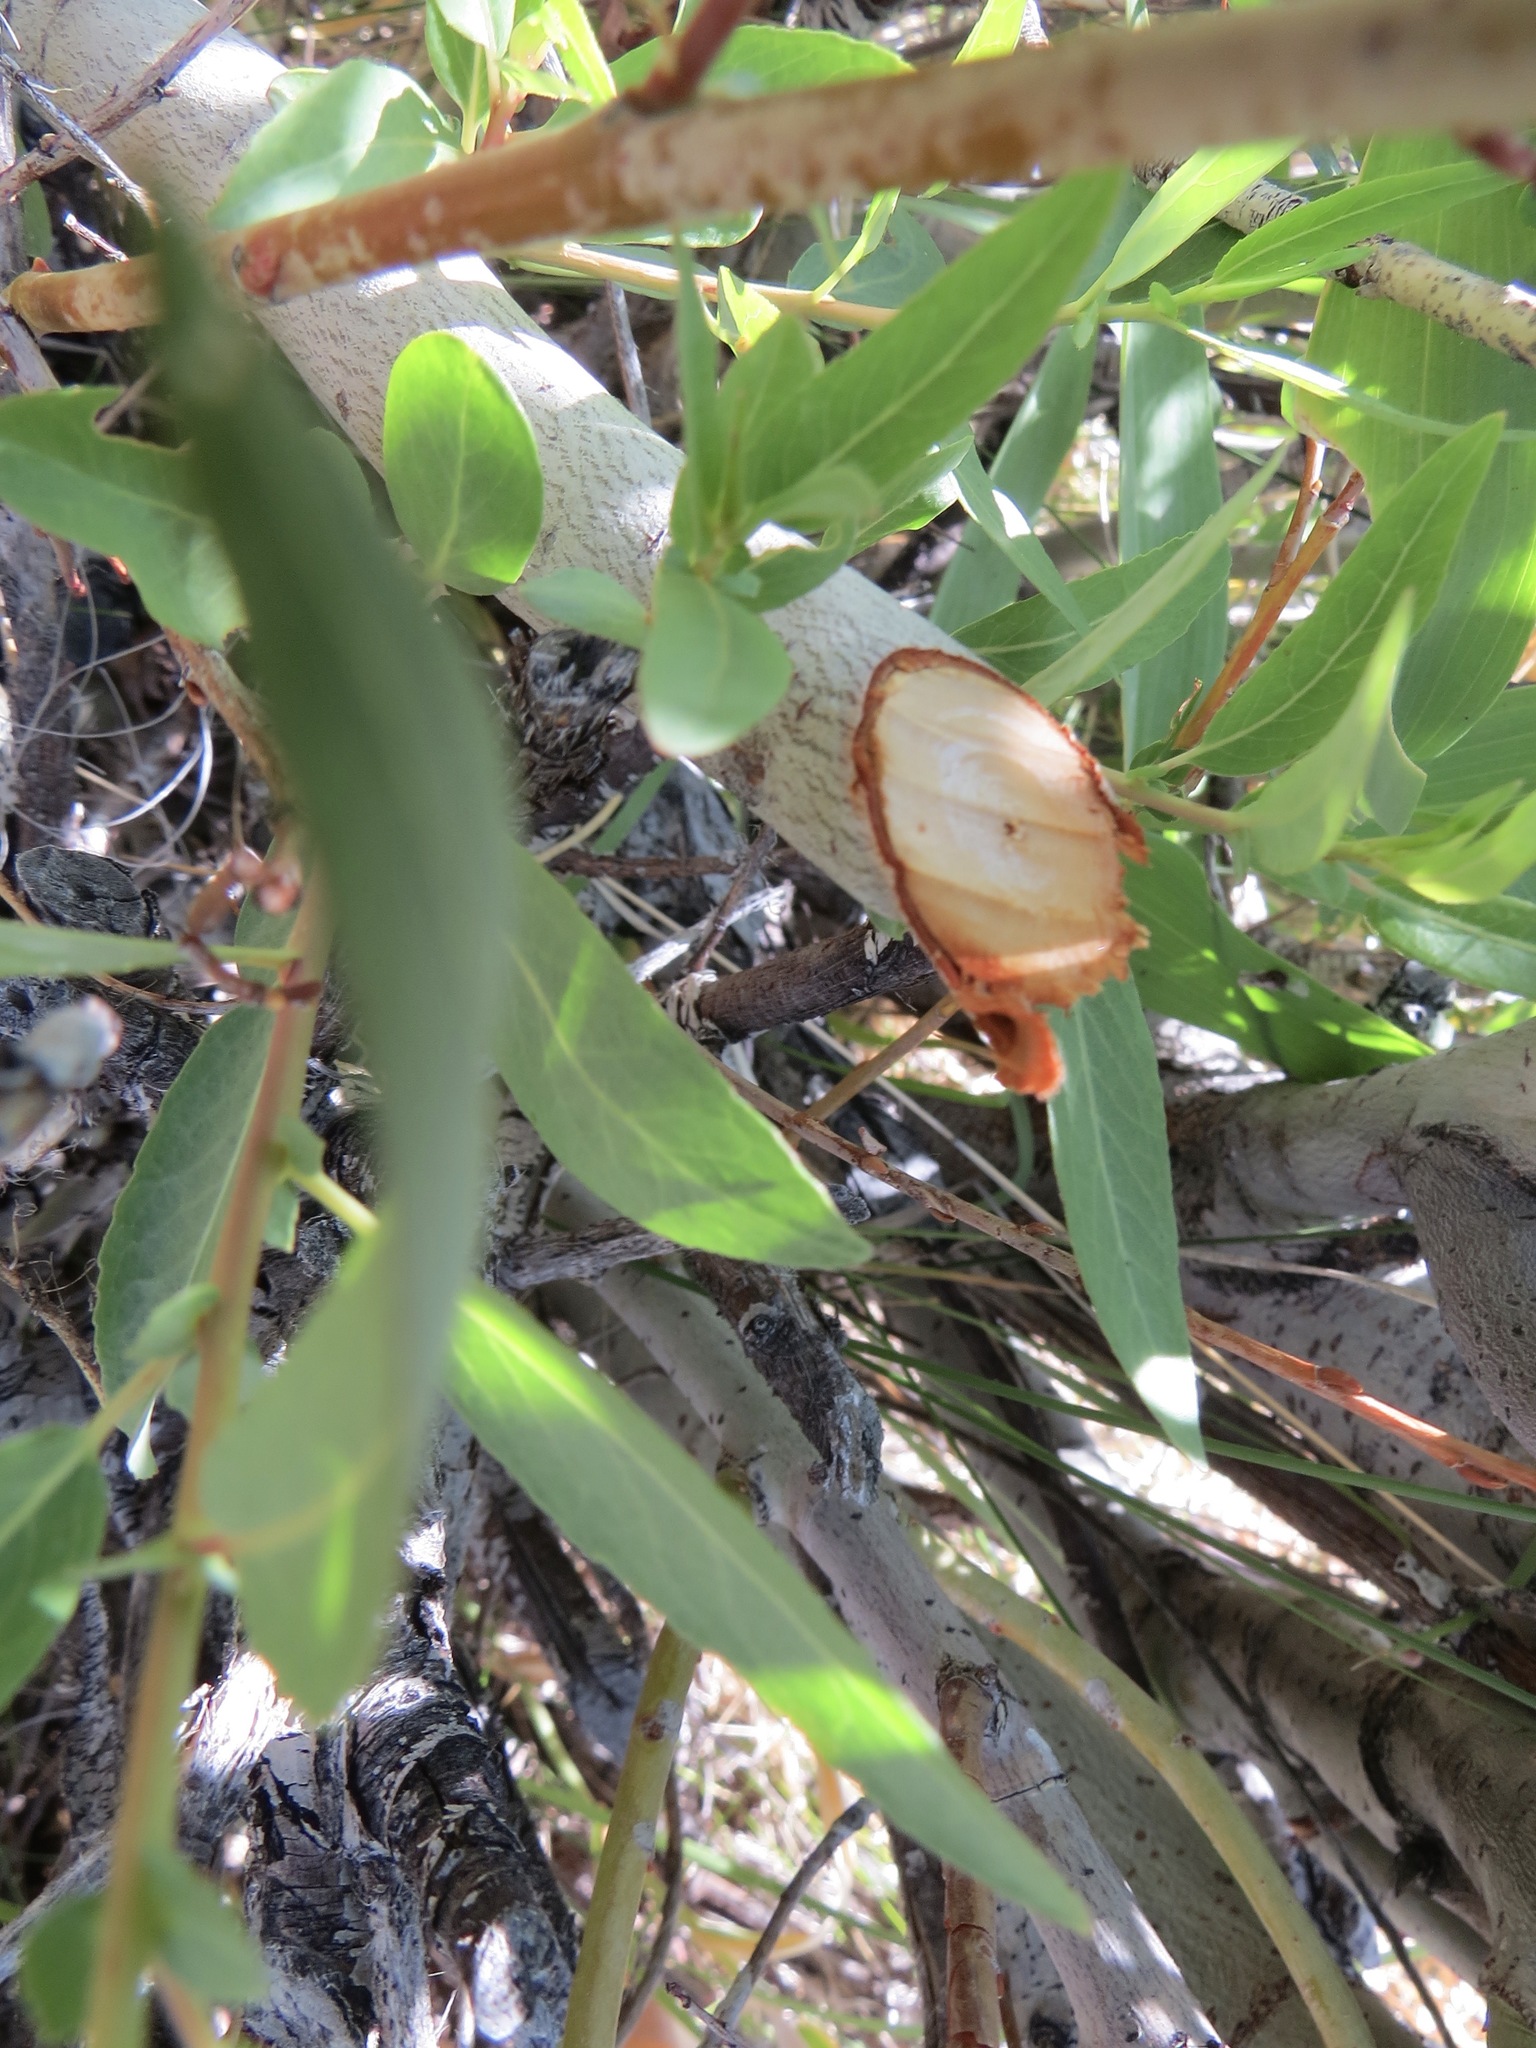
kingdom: Animalia
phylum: Chordata
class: Mammalia
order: Rodentia
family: Castoridae
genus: Castor
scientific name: Castor canadensis
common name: American beaver
